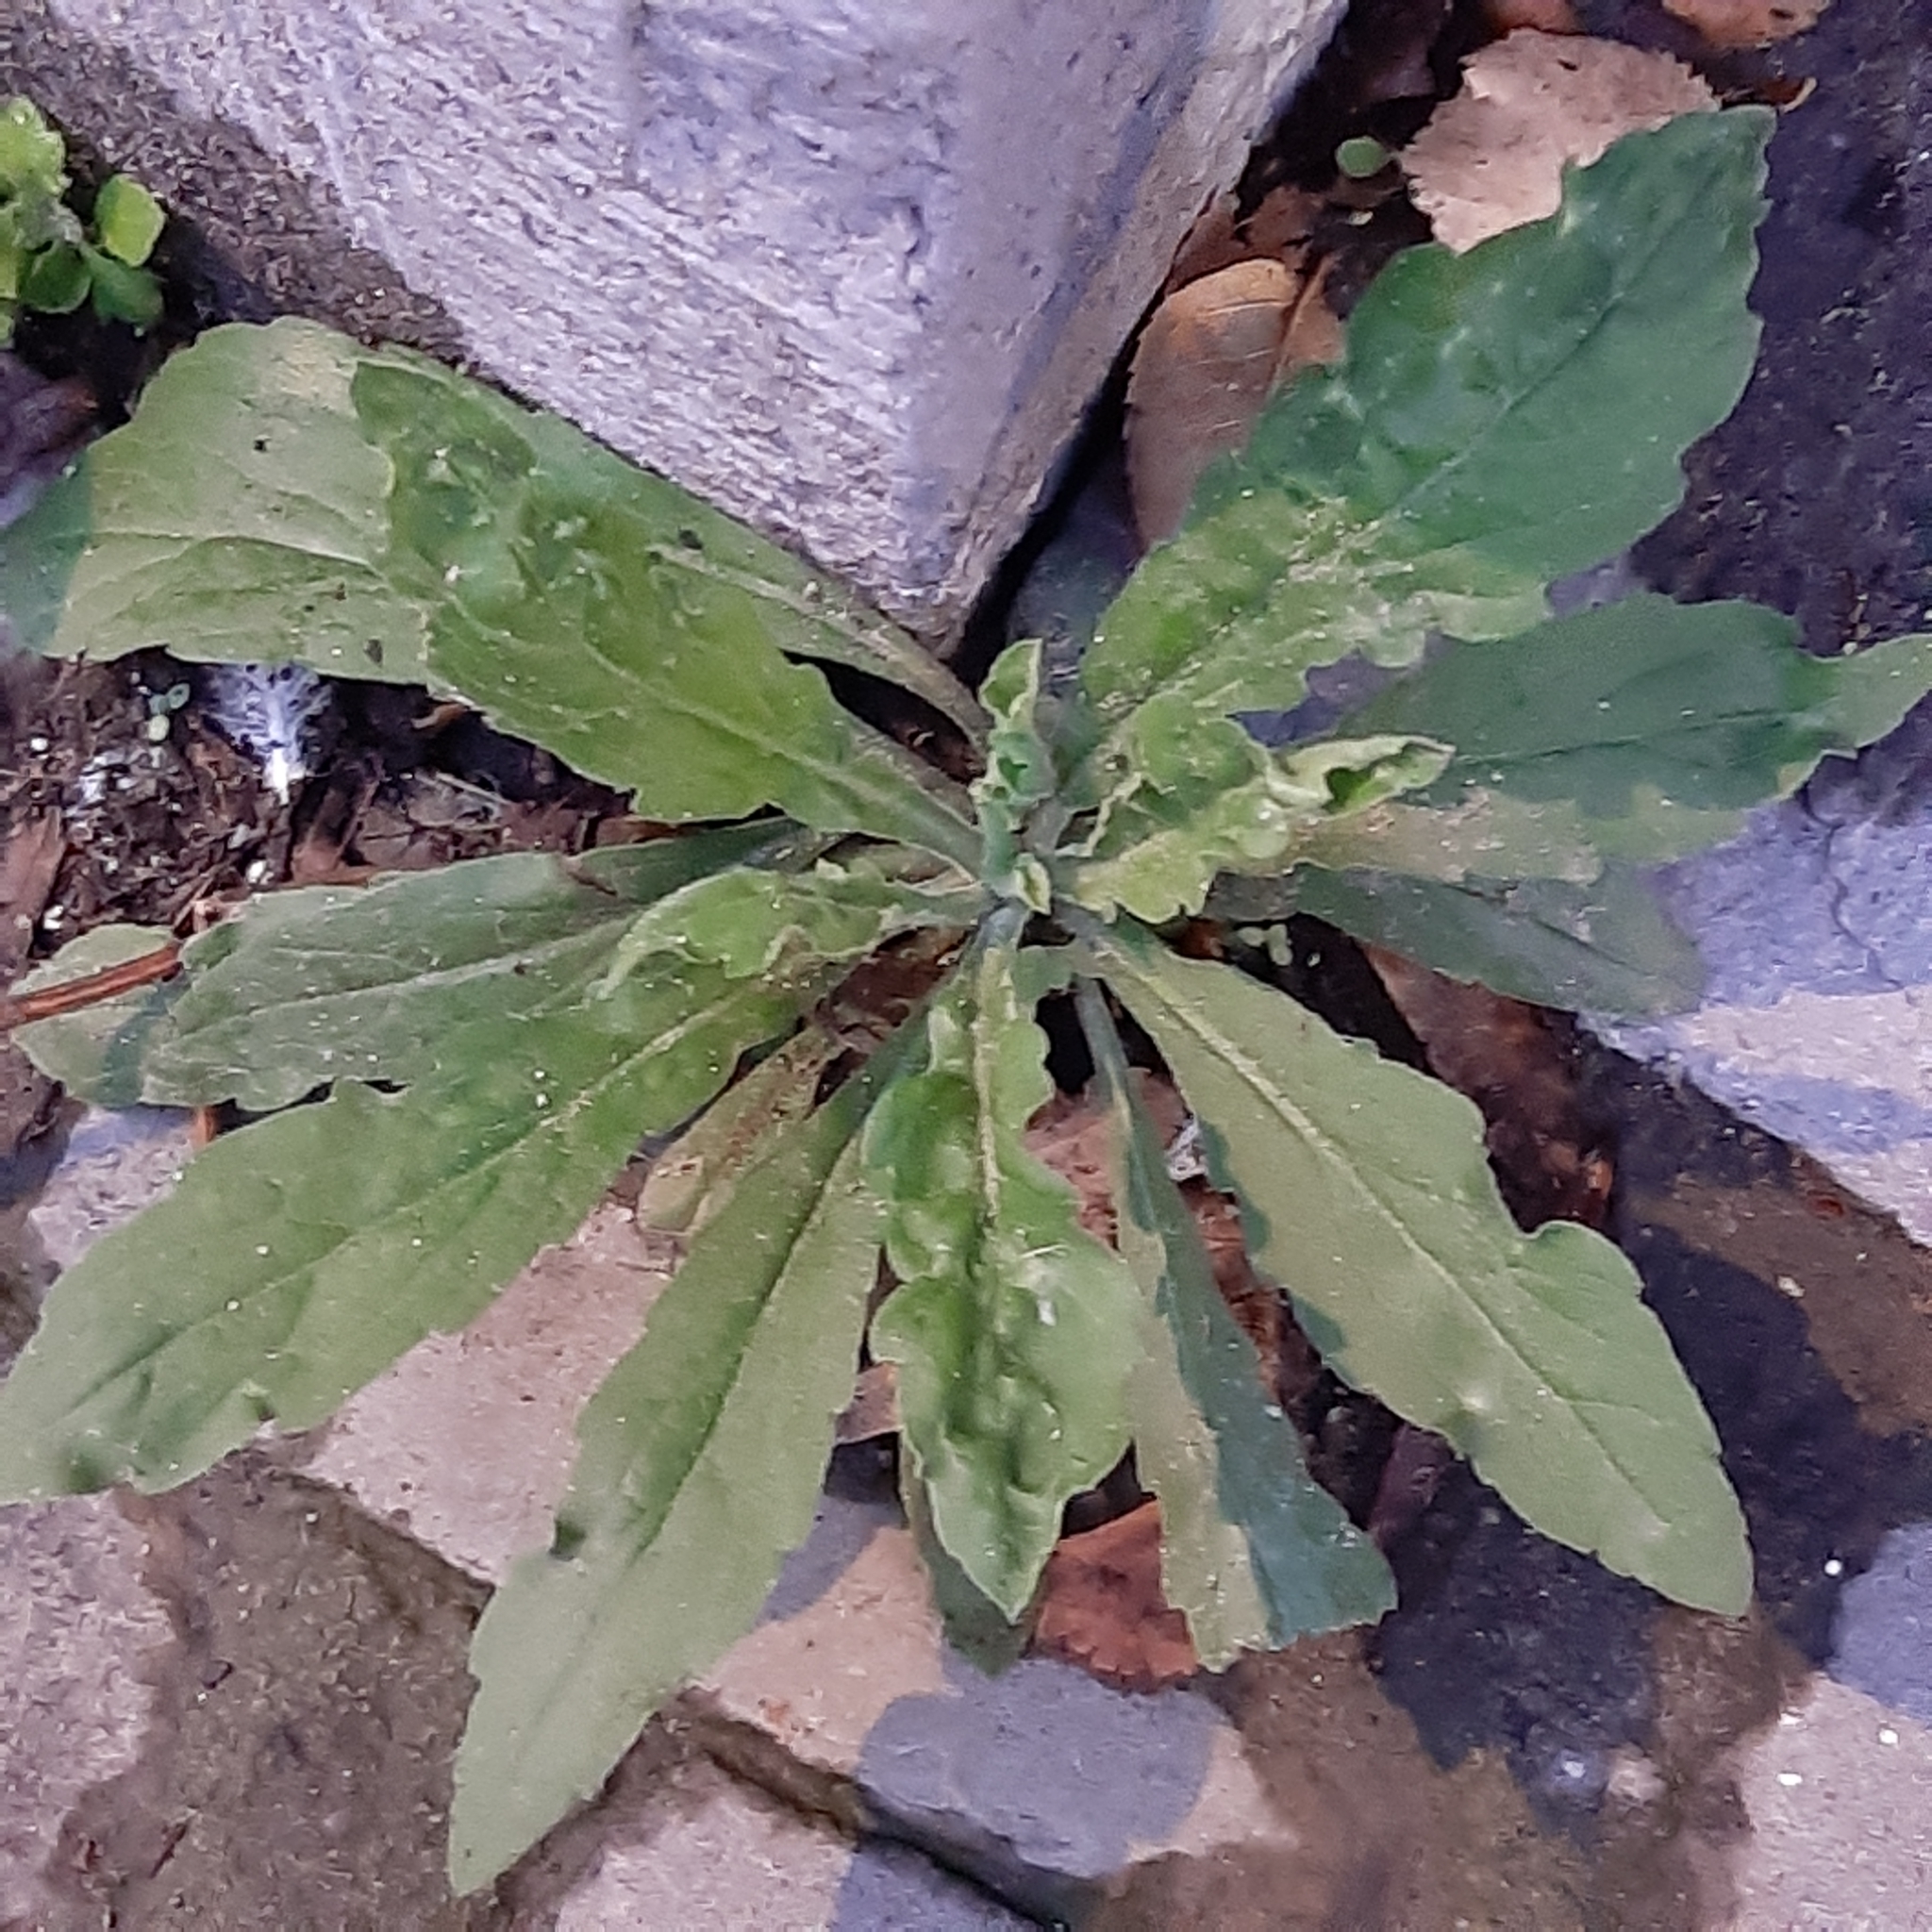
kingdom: Plantae
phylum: Tracheophyta
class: Magnoliopsida
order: Asterales
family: Asteraceae
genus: Erigeron
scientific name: Erigeron sumatrensis
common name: Daisy
